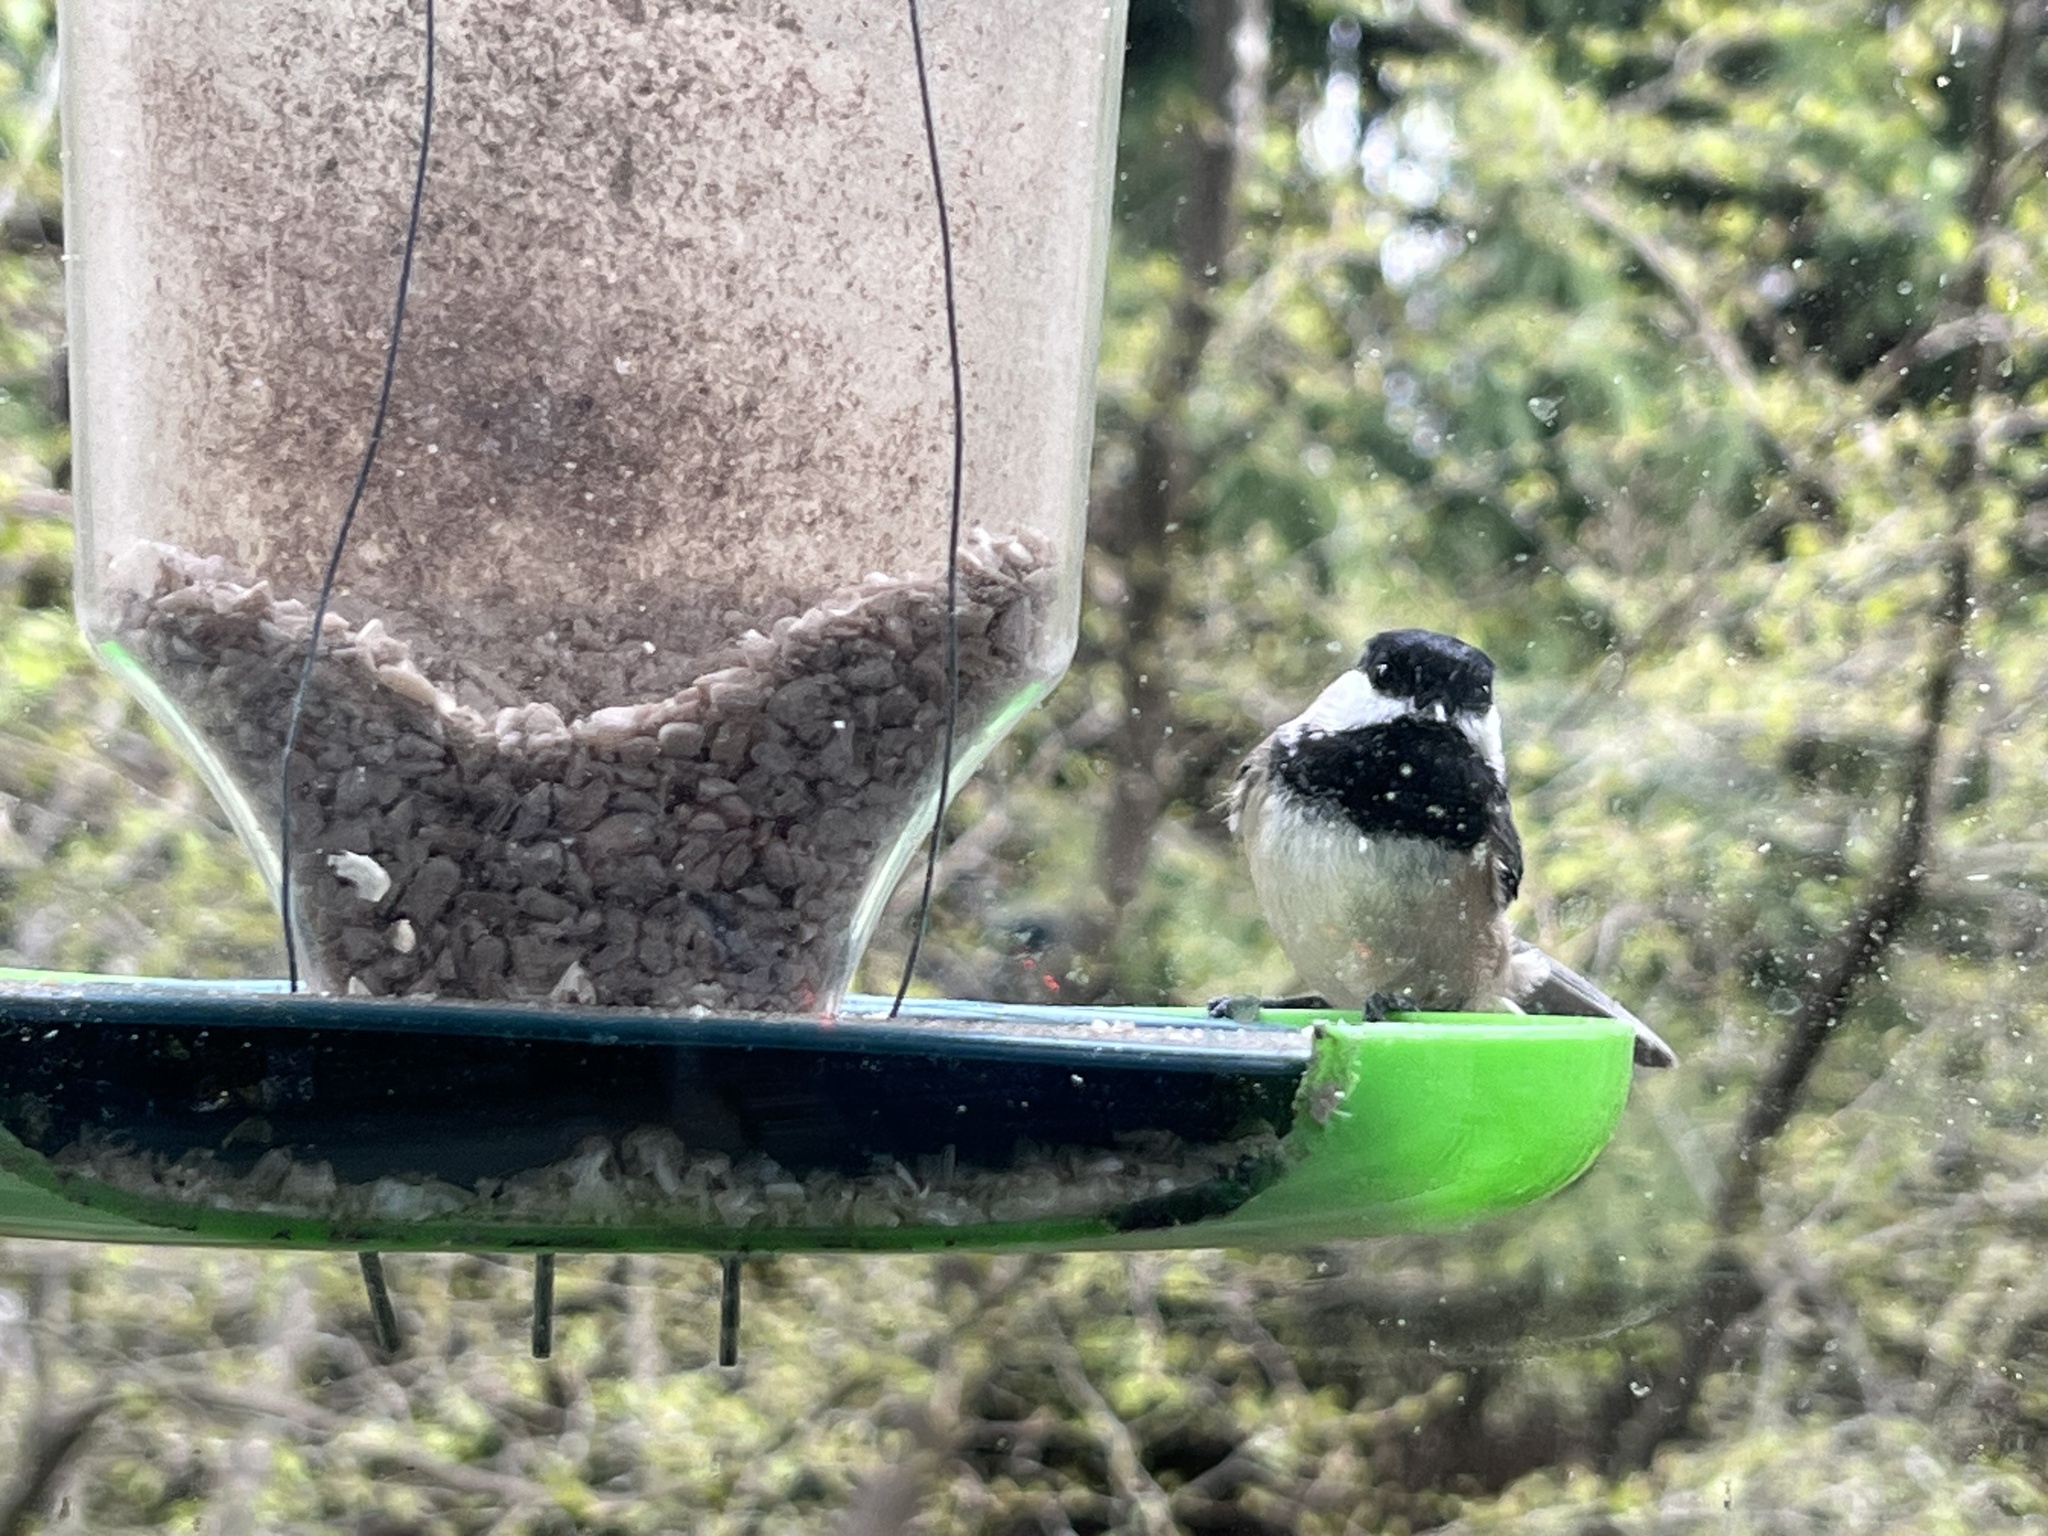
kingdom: Animalia
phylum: Chordata
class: Aves
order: Passeriformes
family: Paridae
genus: Poecile
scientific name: Poecile atricapillus
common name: Black-capped chickadee
